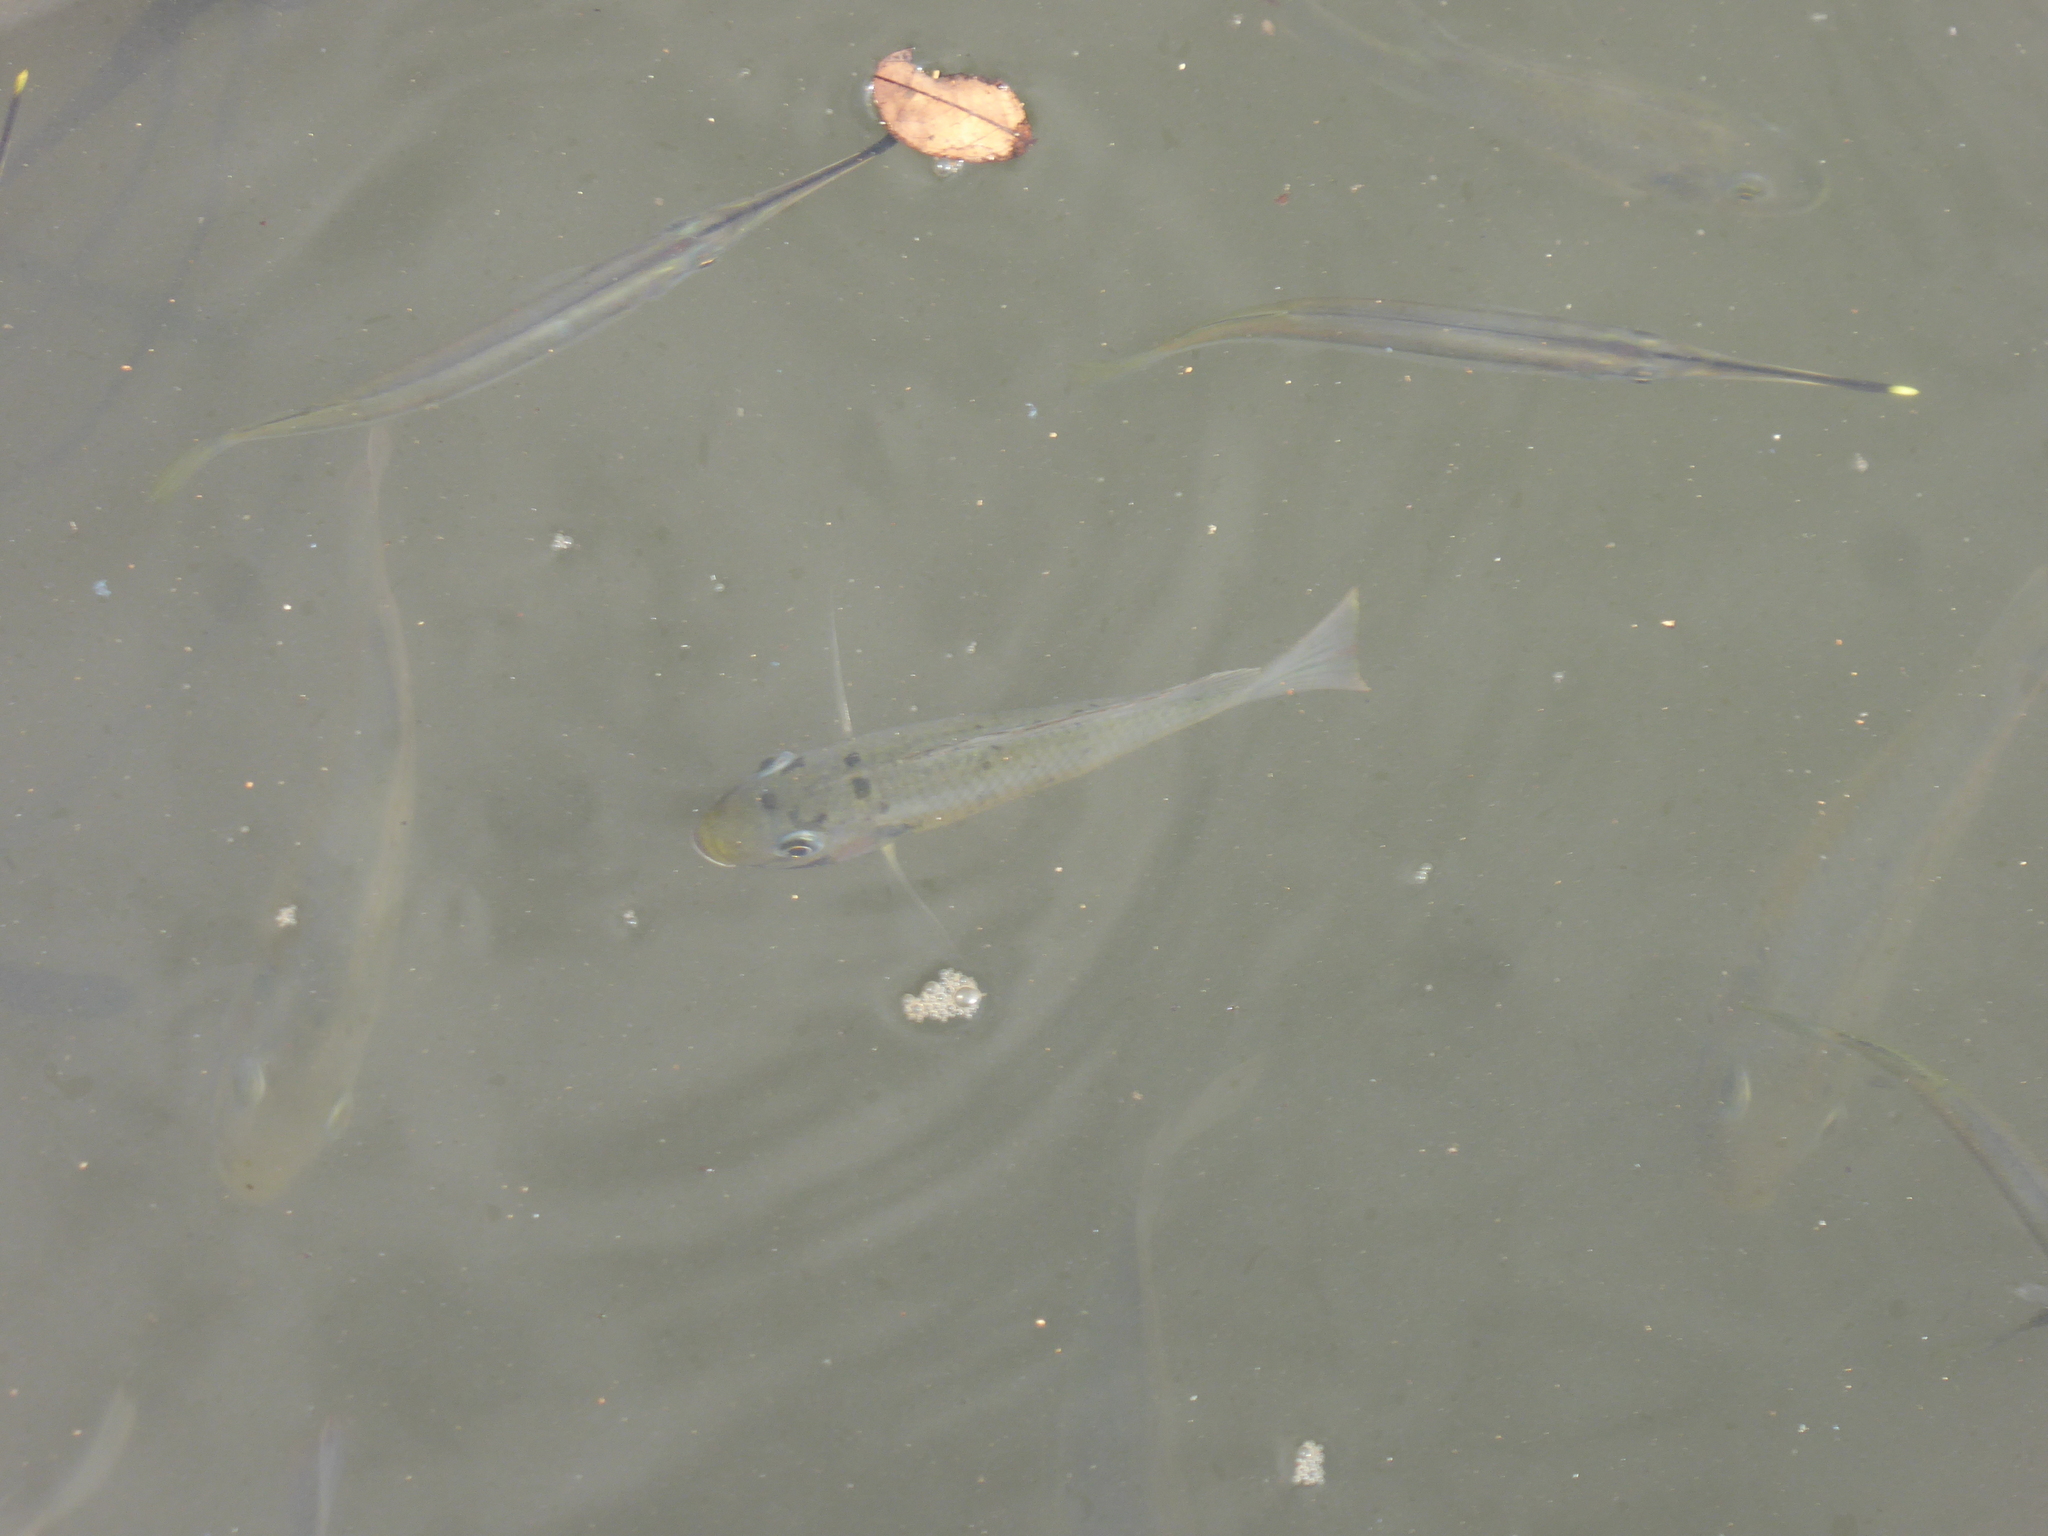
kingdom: Animalia
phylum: Chordata
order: Perciformes
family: Cichlidae
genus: Sarotherodon
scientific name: Sarotherodon melanotheron
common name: Blackchin tilapia
